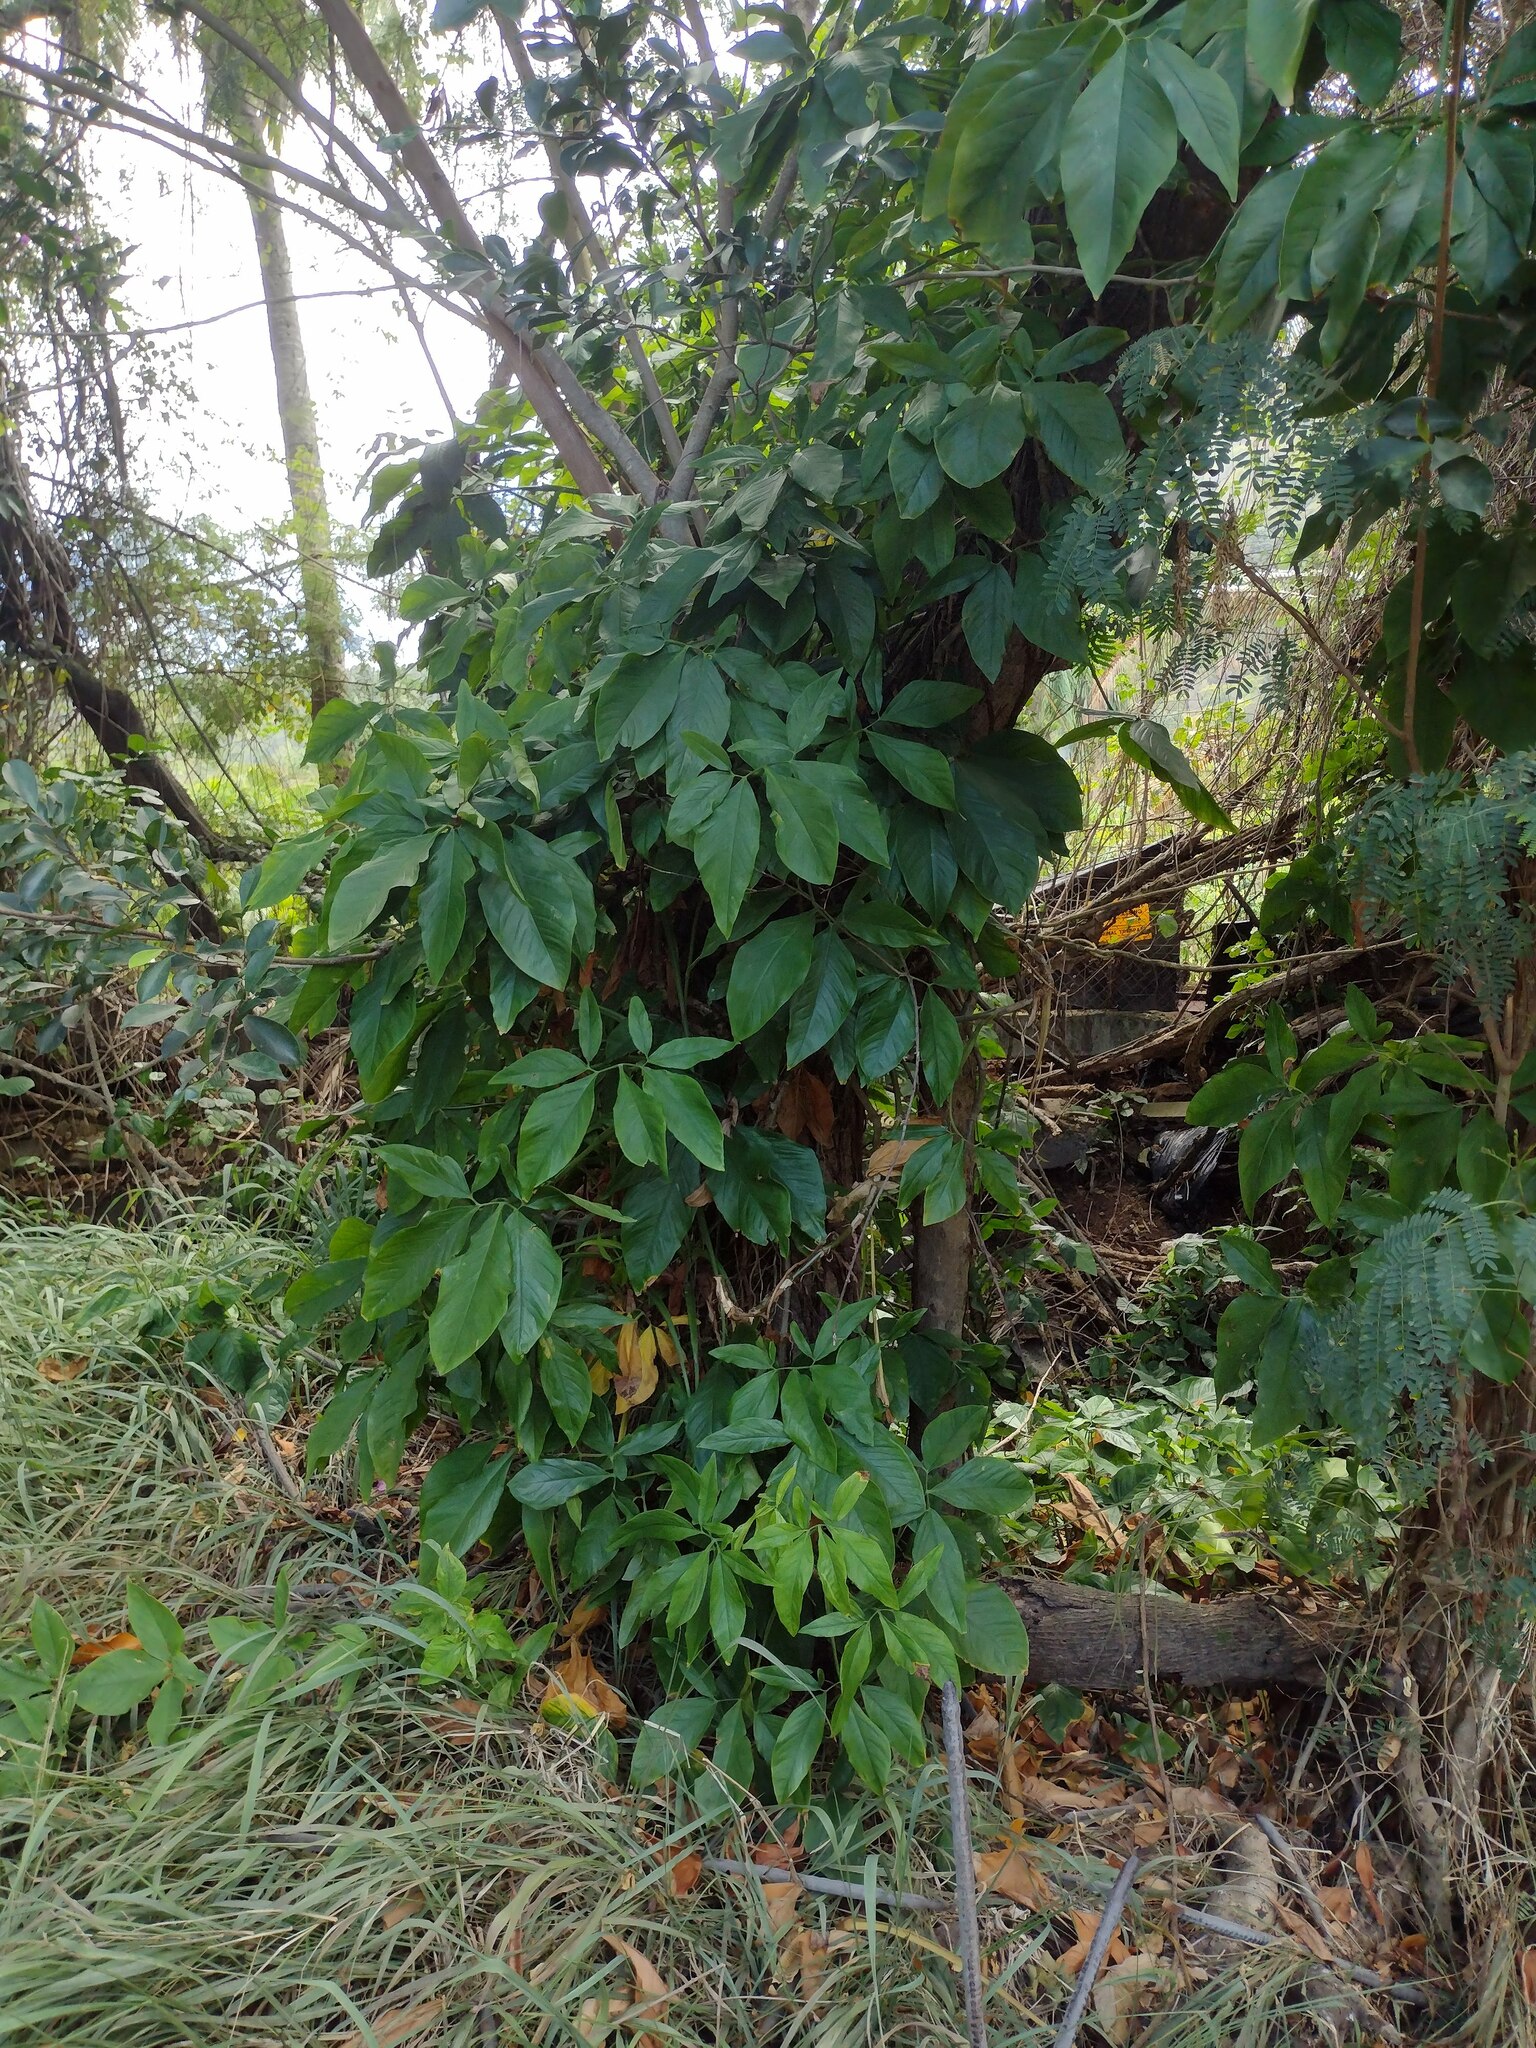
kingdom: Plantae
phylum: Tracheophyta
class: Liliopsida
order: Alismatales
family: Araceae
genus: Syngonium
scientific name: Syngonium podophyllum
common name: American evergreen
